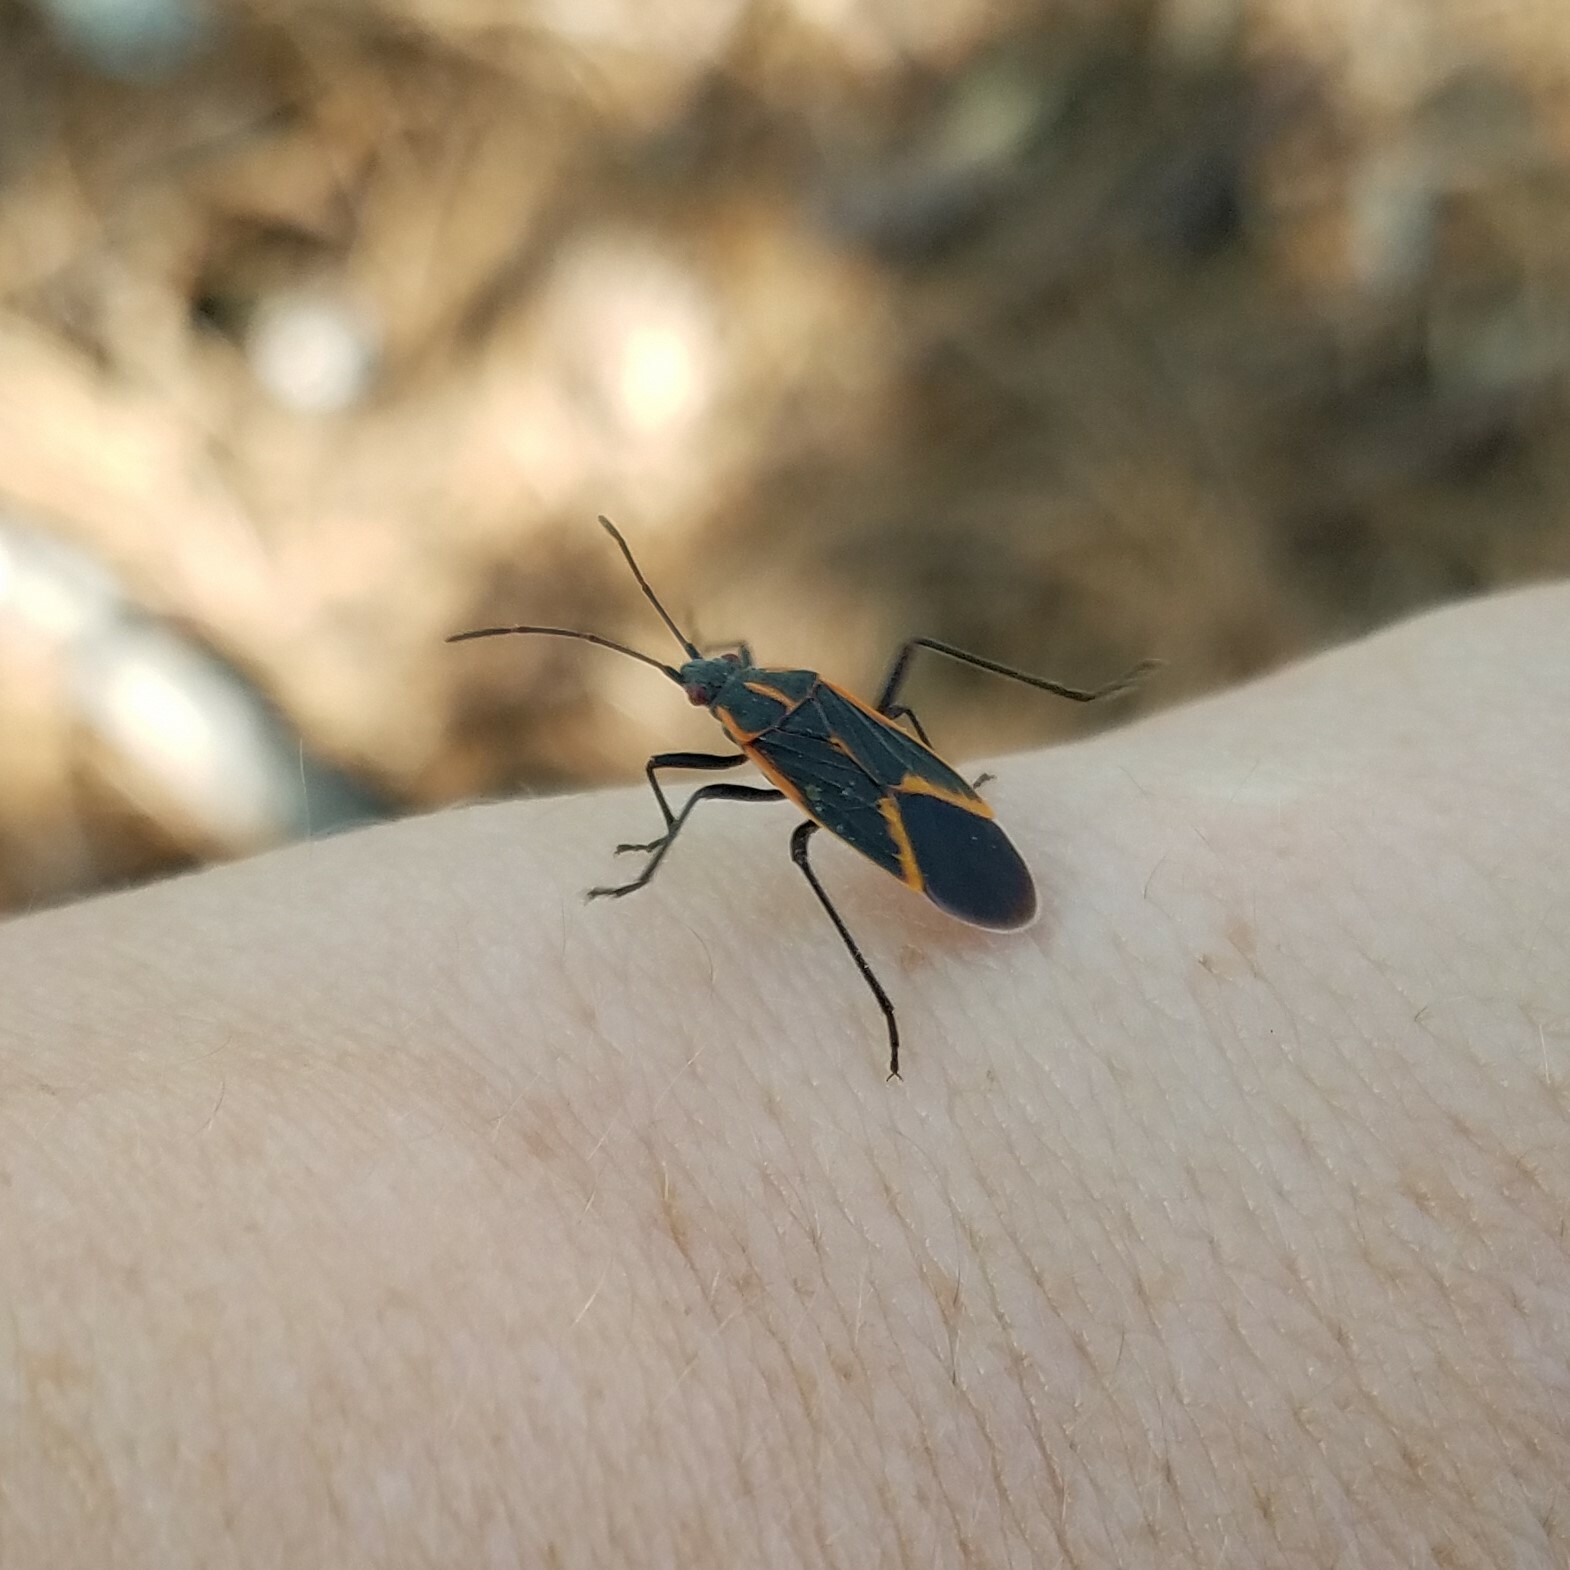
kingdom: Animalia
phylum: Arthropoda
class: Insecta
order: Hemiptera
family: Rhopalidae
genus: Boisea
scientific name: Boisea trivittata
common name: Boxelder bug
